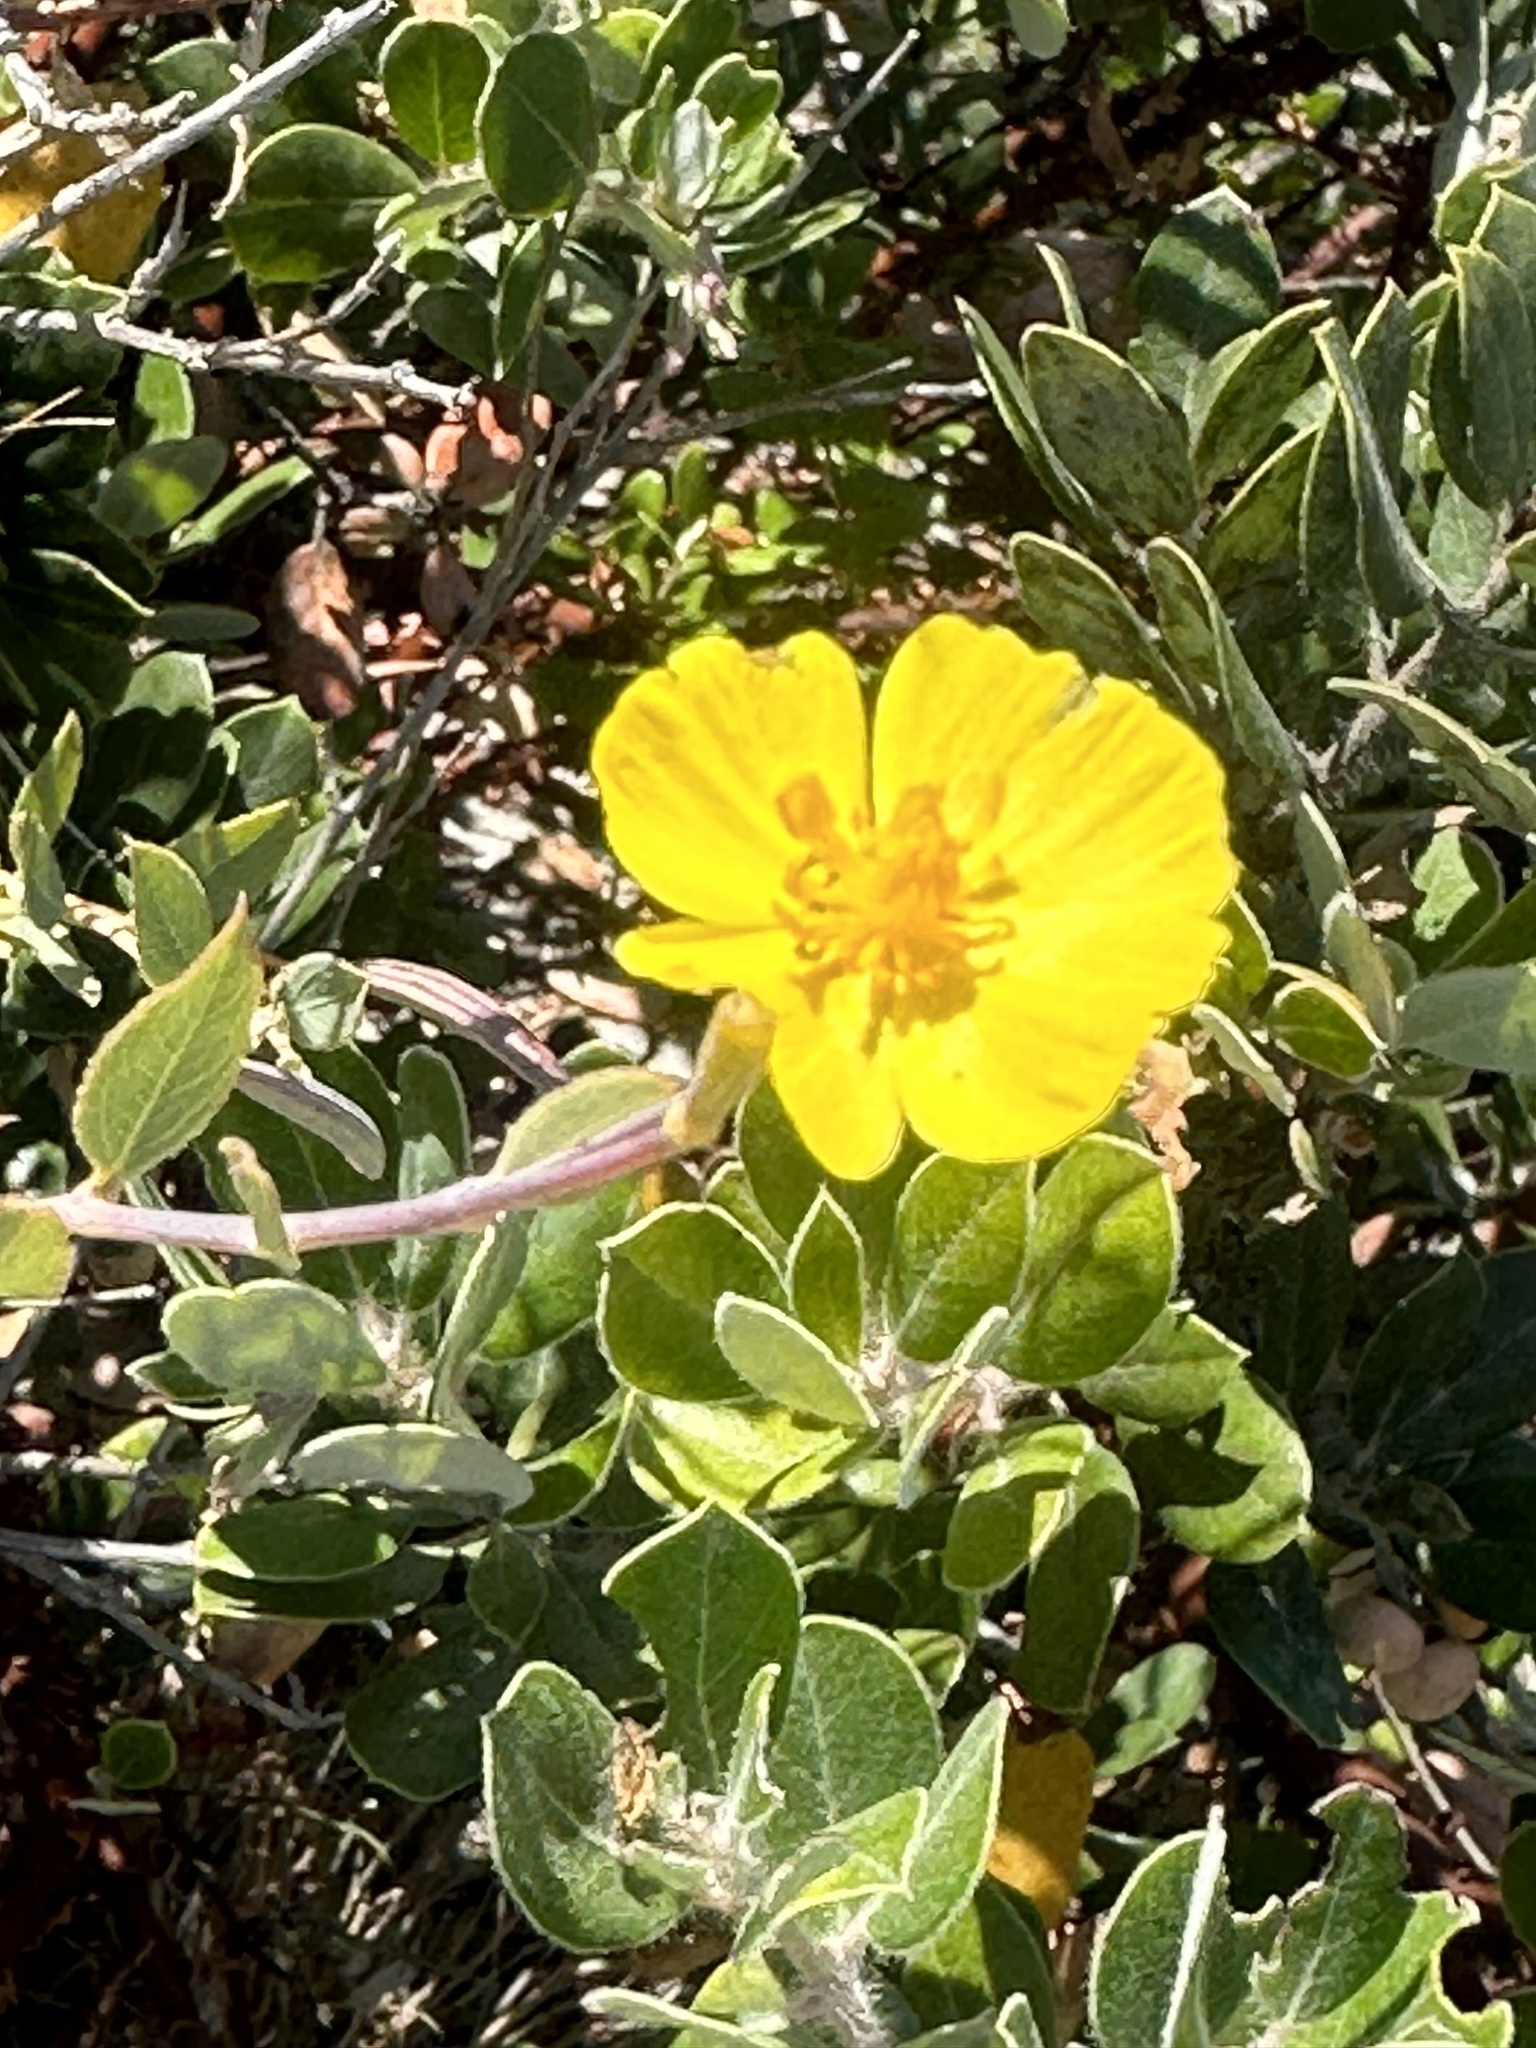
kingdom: Plantae
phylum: Tracheophyta
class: Magnoliopsida
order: Ranunculales
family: Papaveraceae
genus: Dendromecon
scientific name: Dendromecon rigida
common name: Tree poppy
